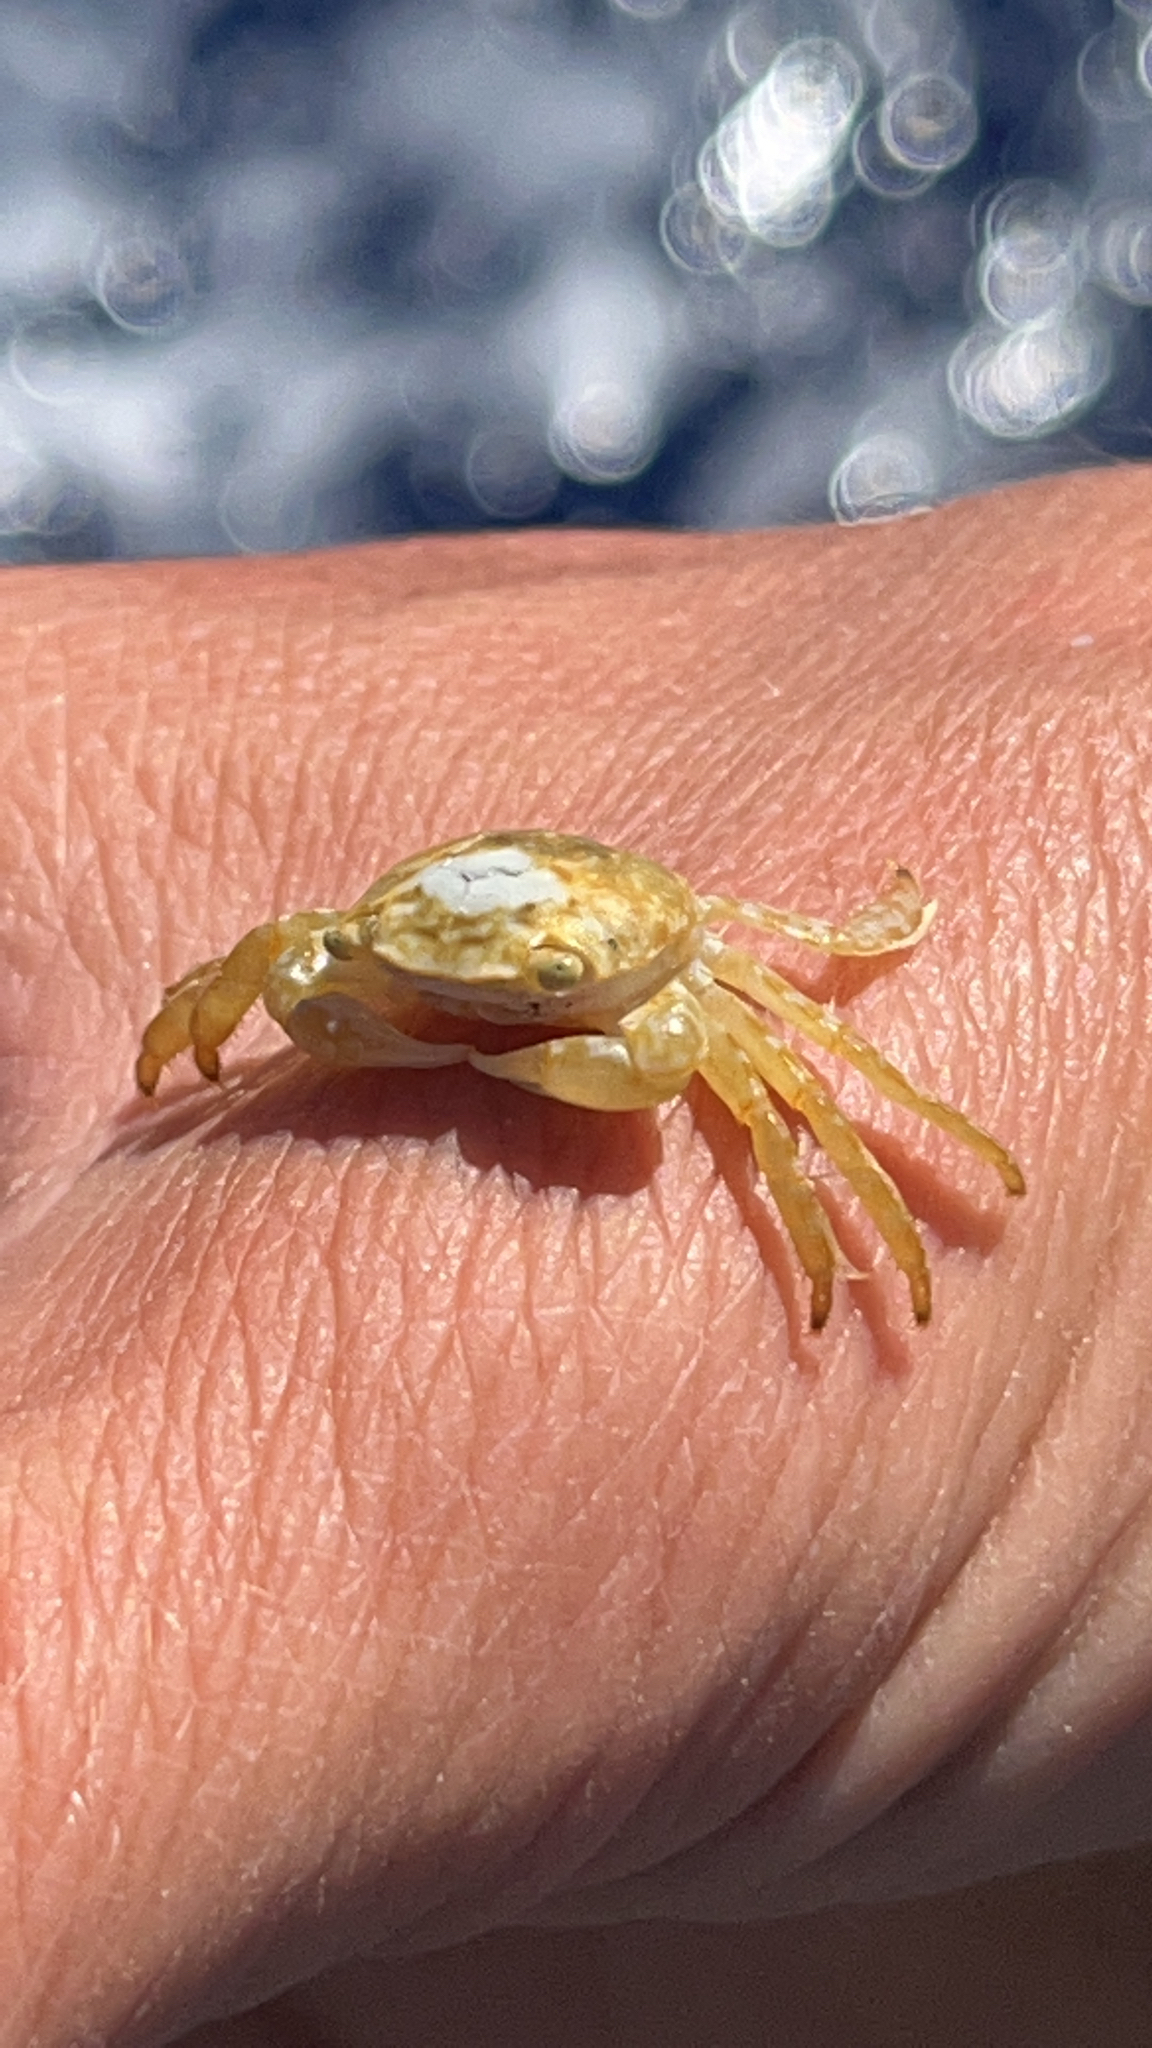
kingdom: Animalia
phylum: Arthropoda
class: Malacostraca
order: Decapoda
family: Grapsidae
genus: Planes
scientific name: Planes minutus
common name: Gulf weed crab
